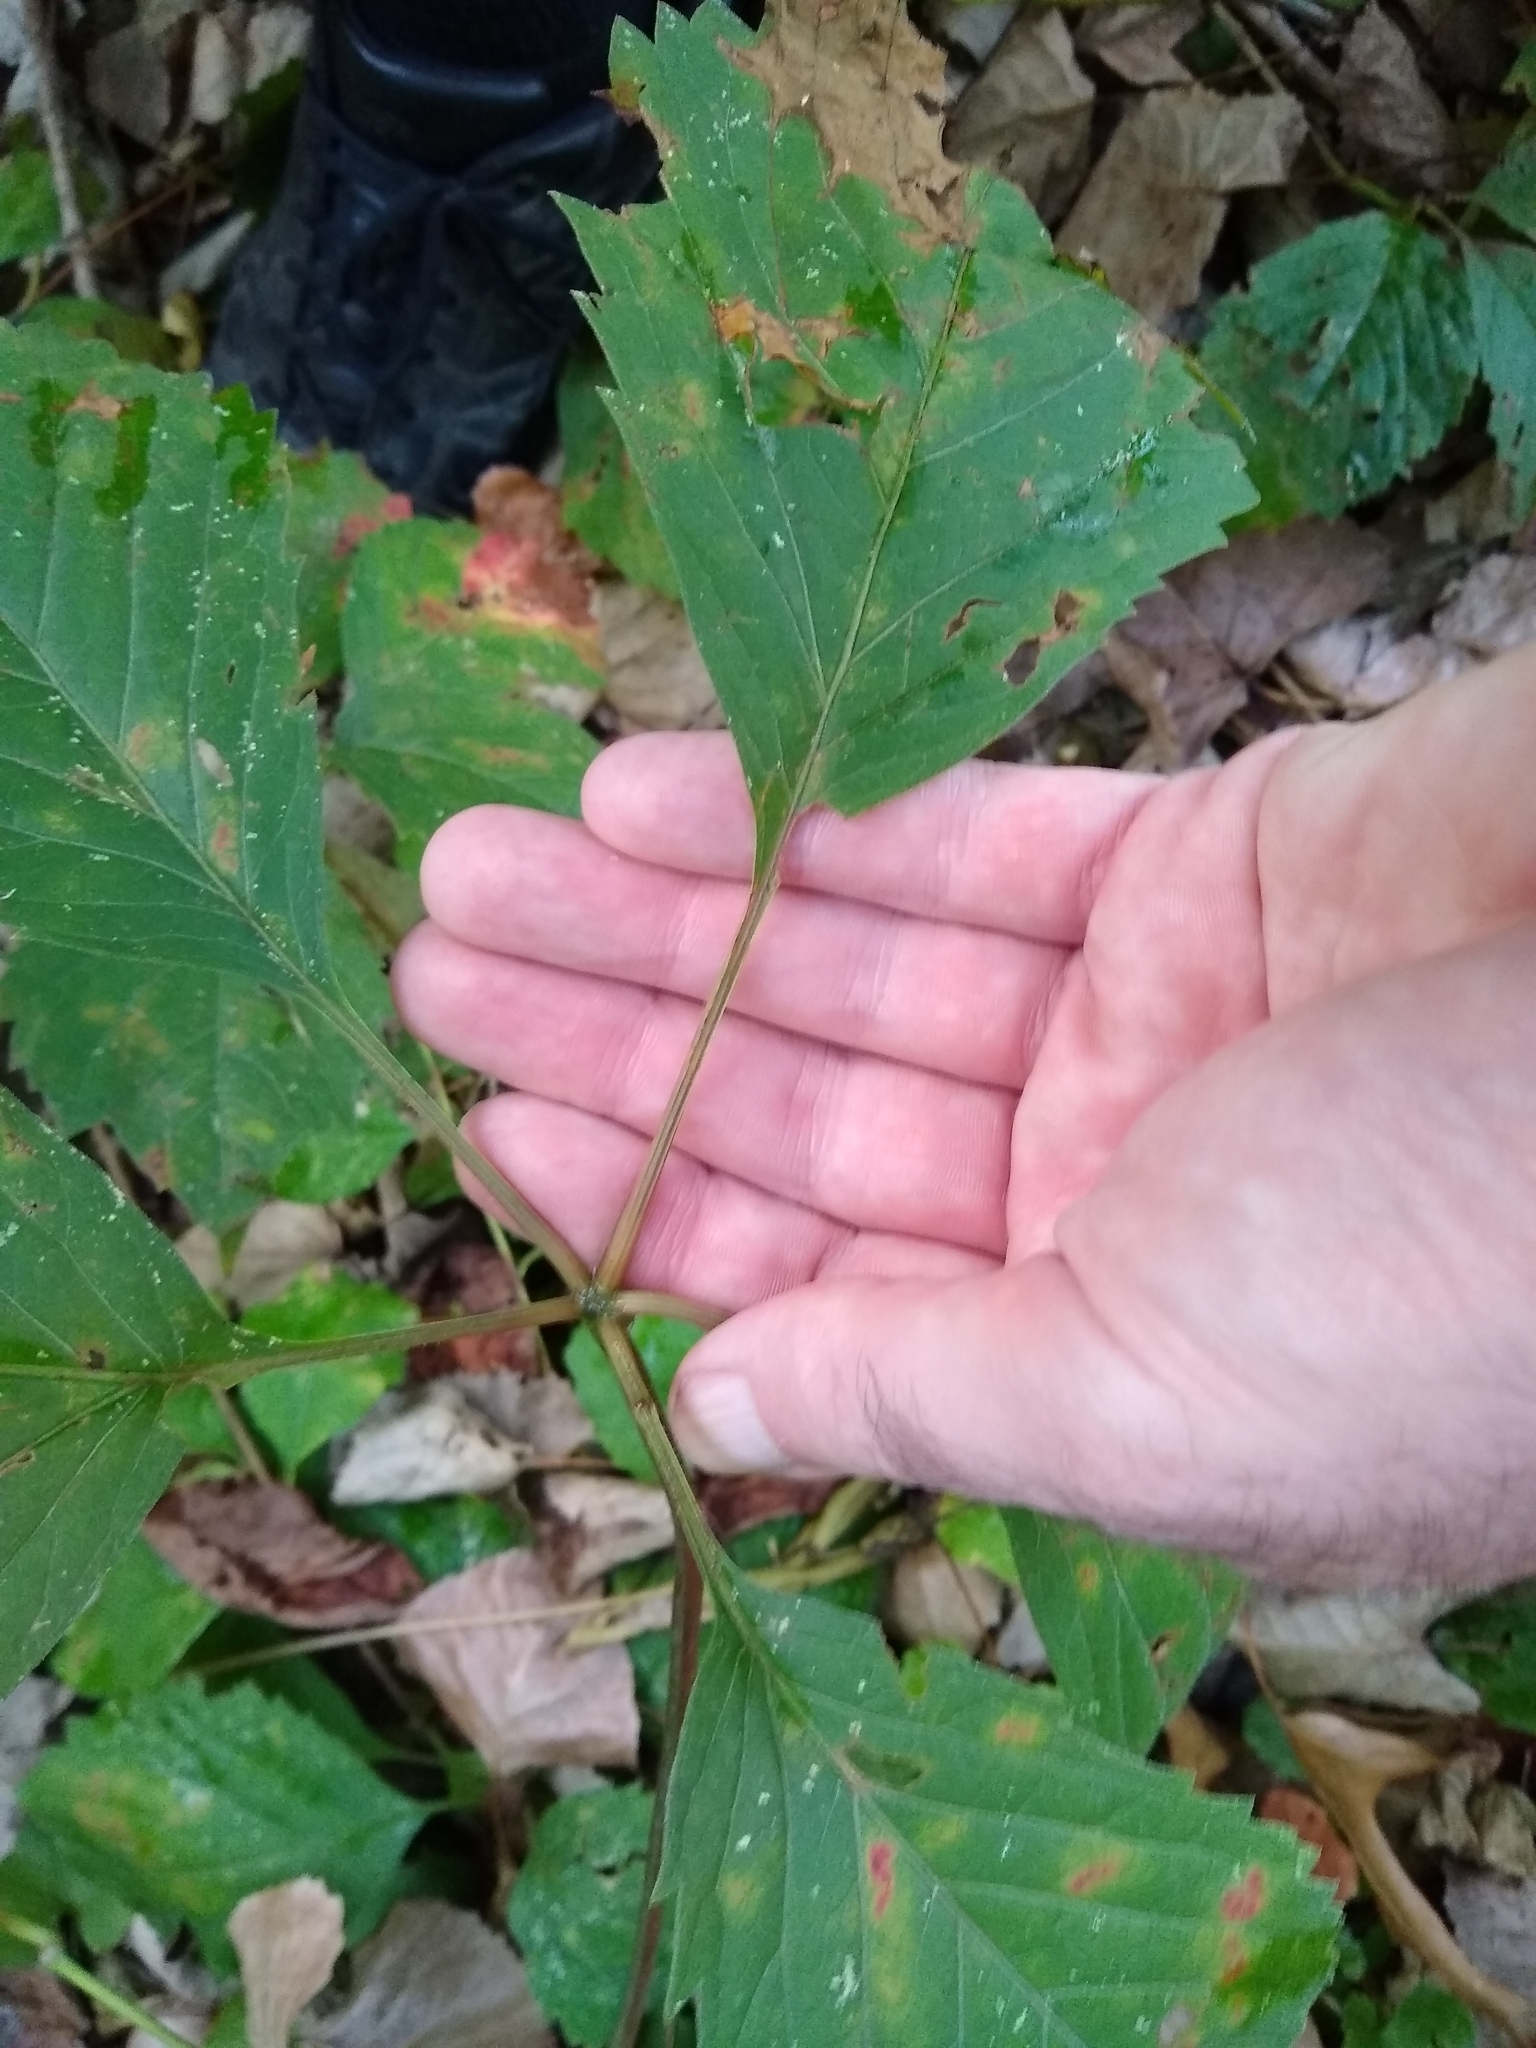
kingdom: Plantae
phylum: Tracheophyta
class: Magnoliopsida
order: Vitales
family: Vitaceae
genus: Parthenocissus
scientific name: Parthenocissus inserta
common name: False virginia-creeper
